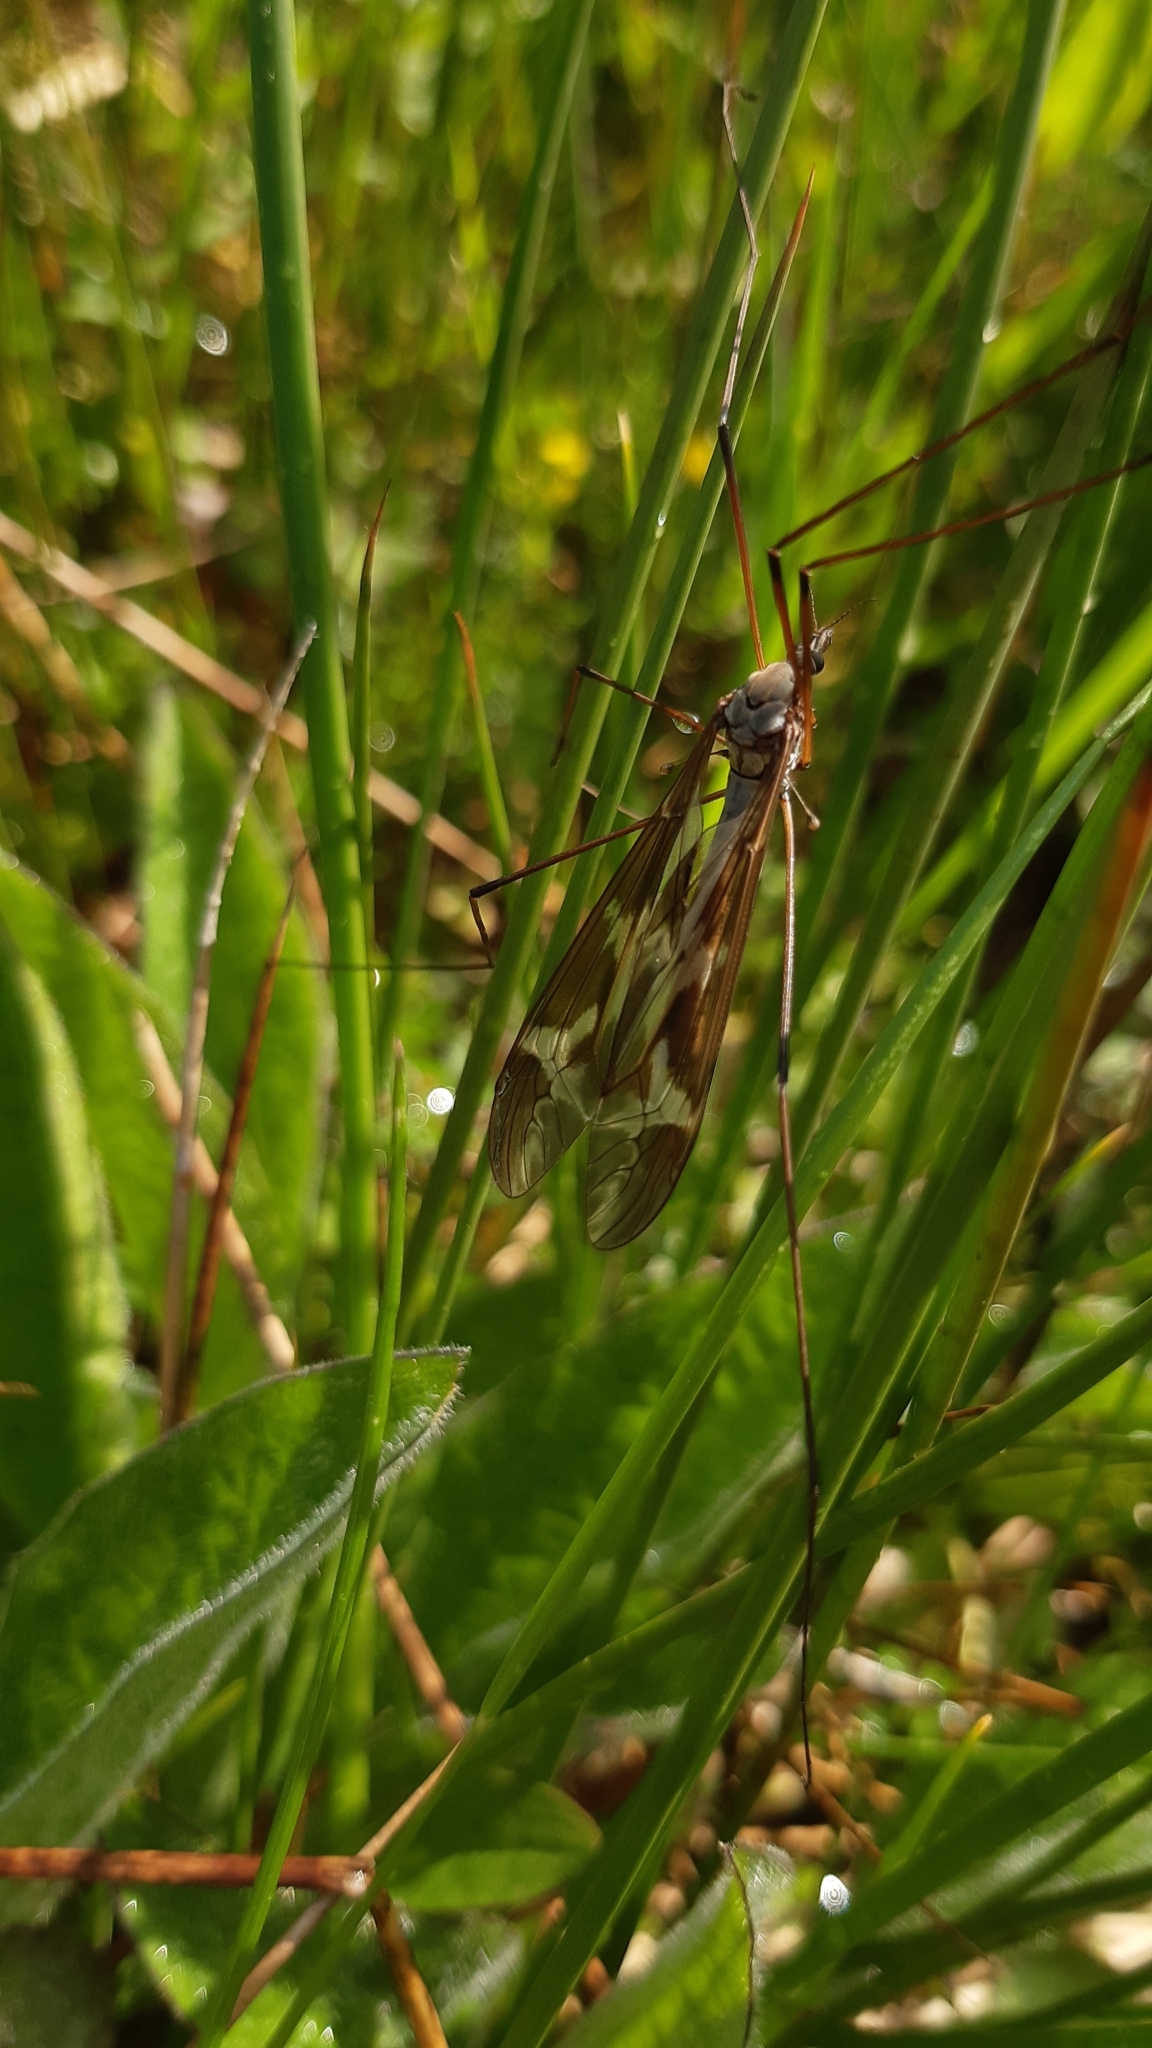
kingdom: Animalia
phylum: Arthropoda
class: Insecta
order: Diptera
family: Tipulidae
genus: Tipula
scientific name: Tipula maxima
